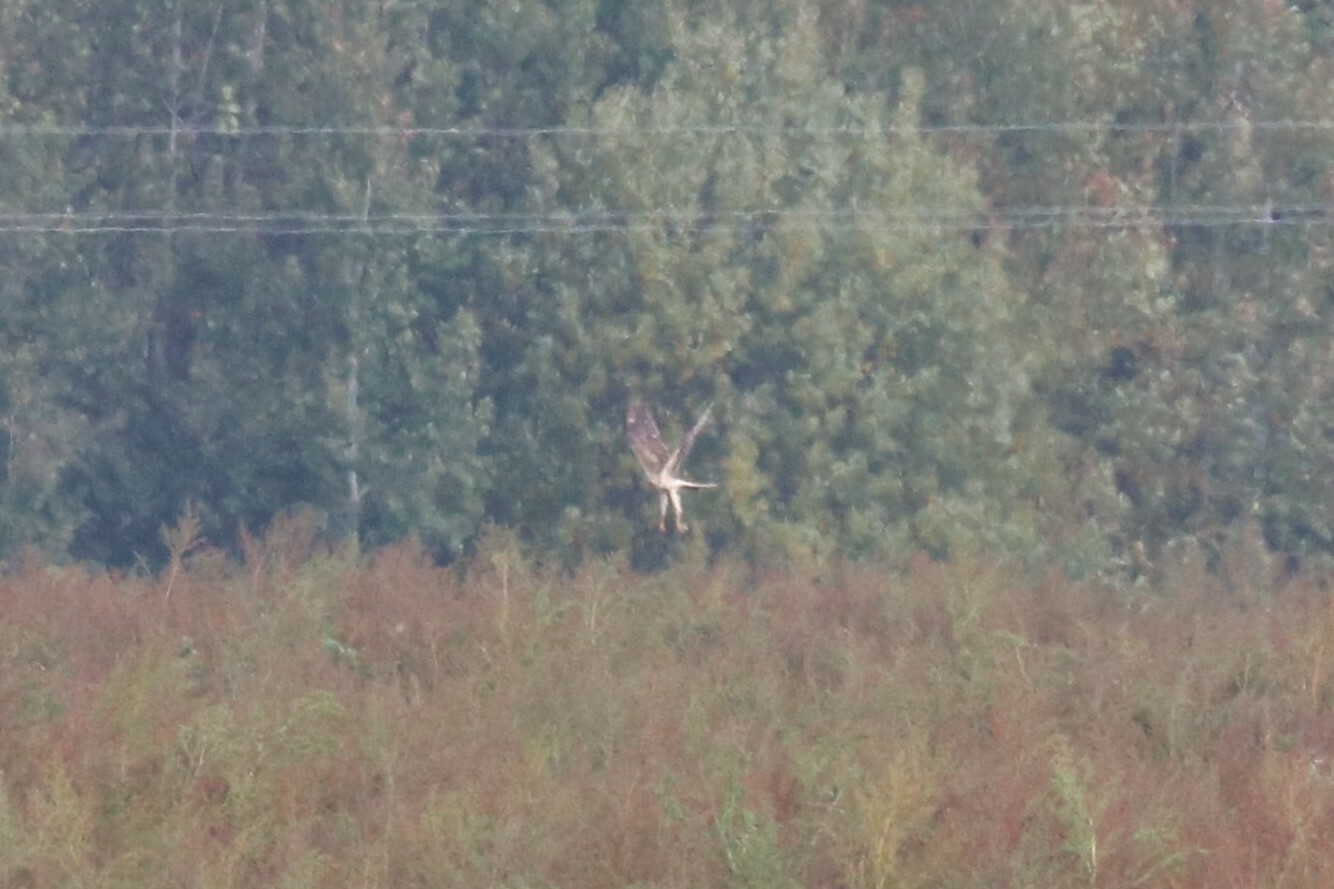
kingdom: Animalia
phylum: Chordata
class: Aves
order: Accipitriformes
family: Accipitridae
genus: Circus
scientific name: Circus macrourus
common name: Pallid harrier
